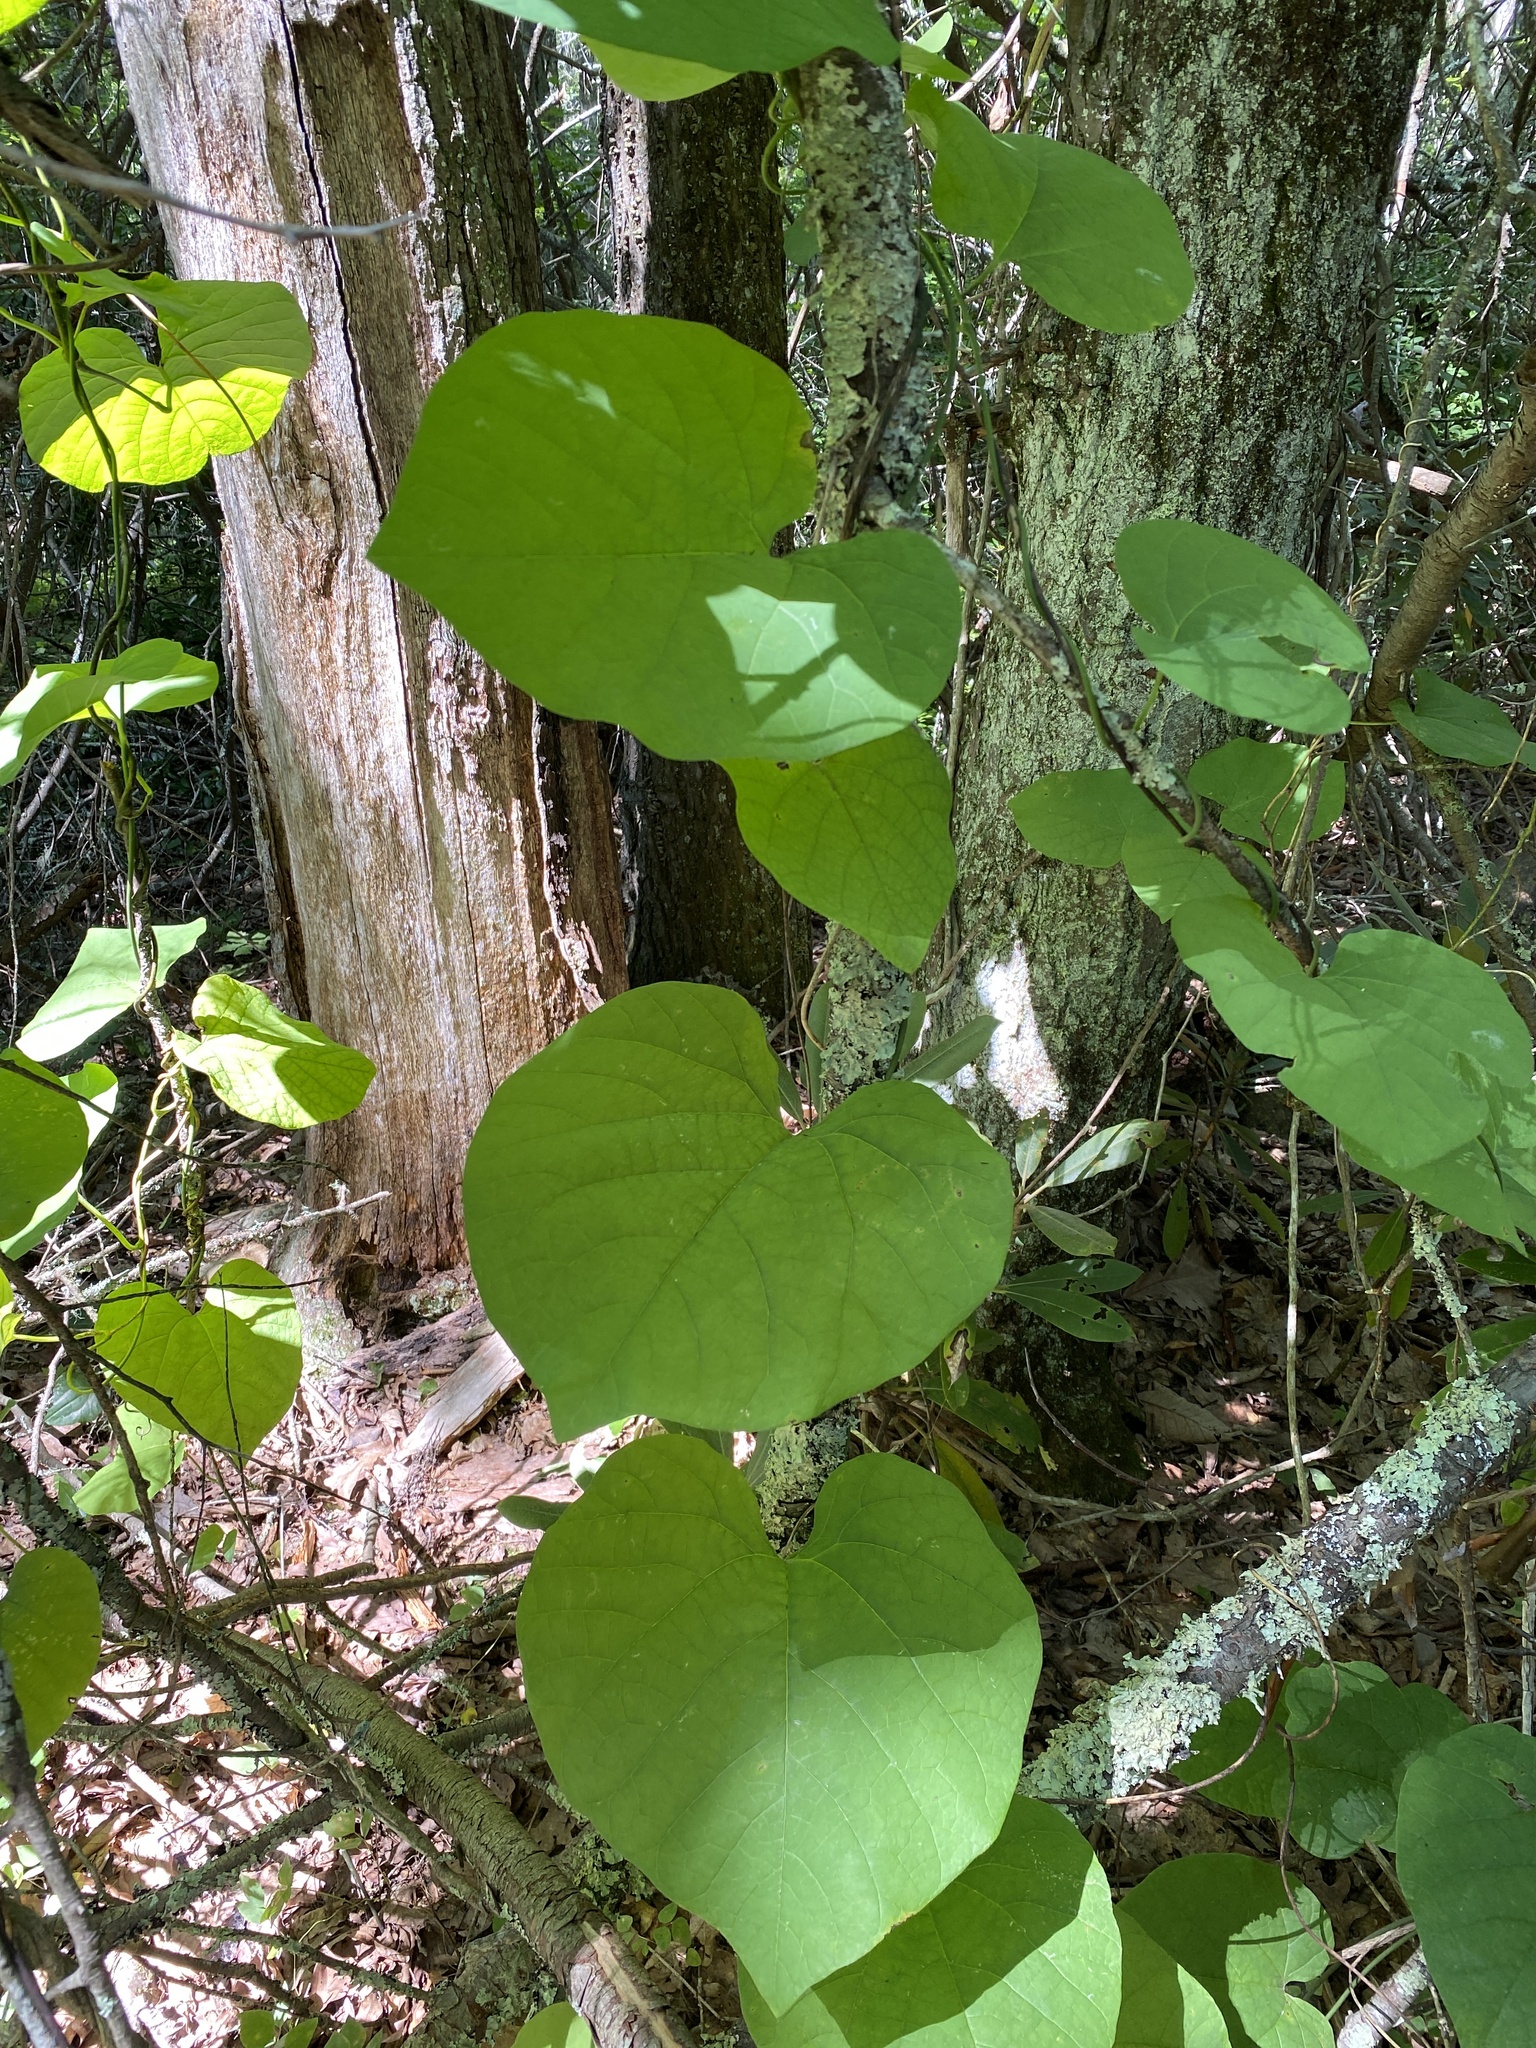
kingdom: Plantae
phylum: Tracheophyta
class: Magnoliopsida
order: Piperales
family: Aristolochiaceae
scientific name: Aristolochiaceae
